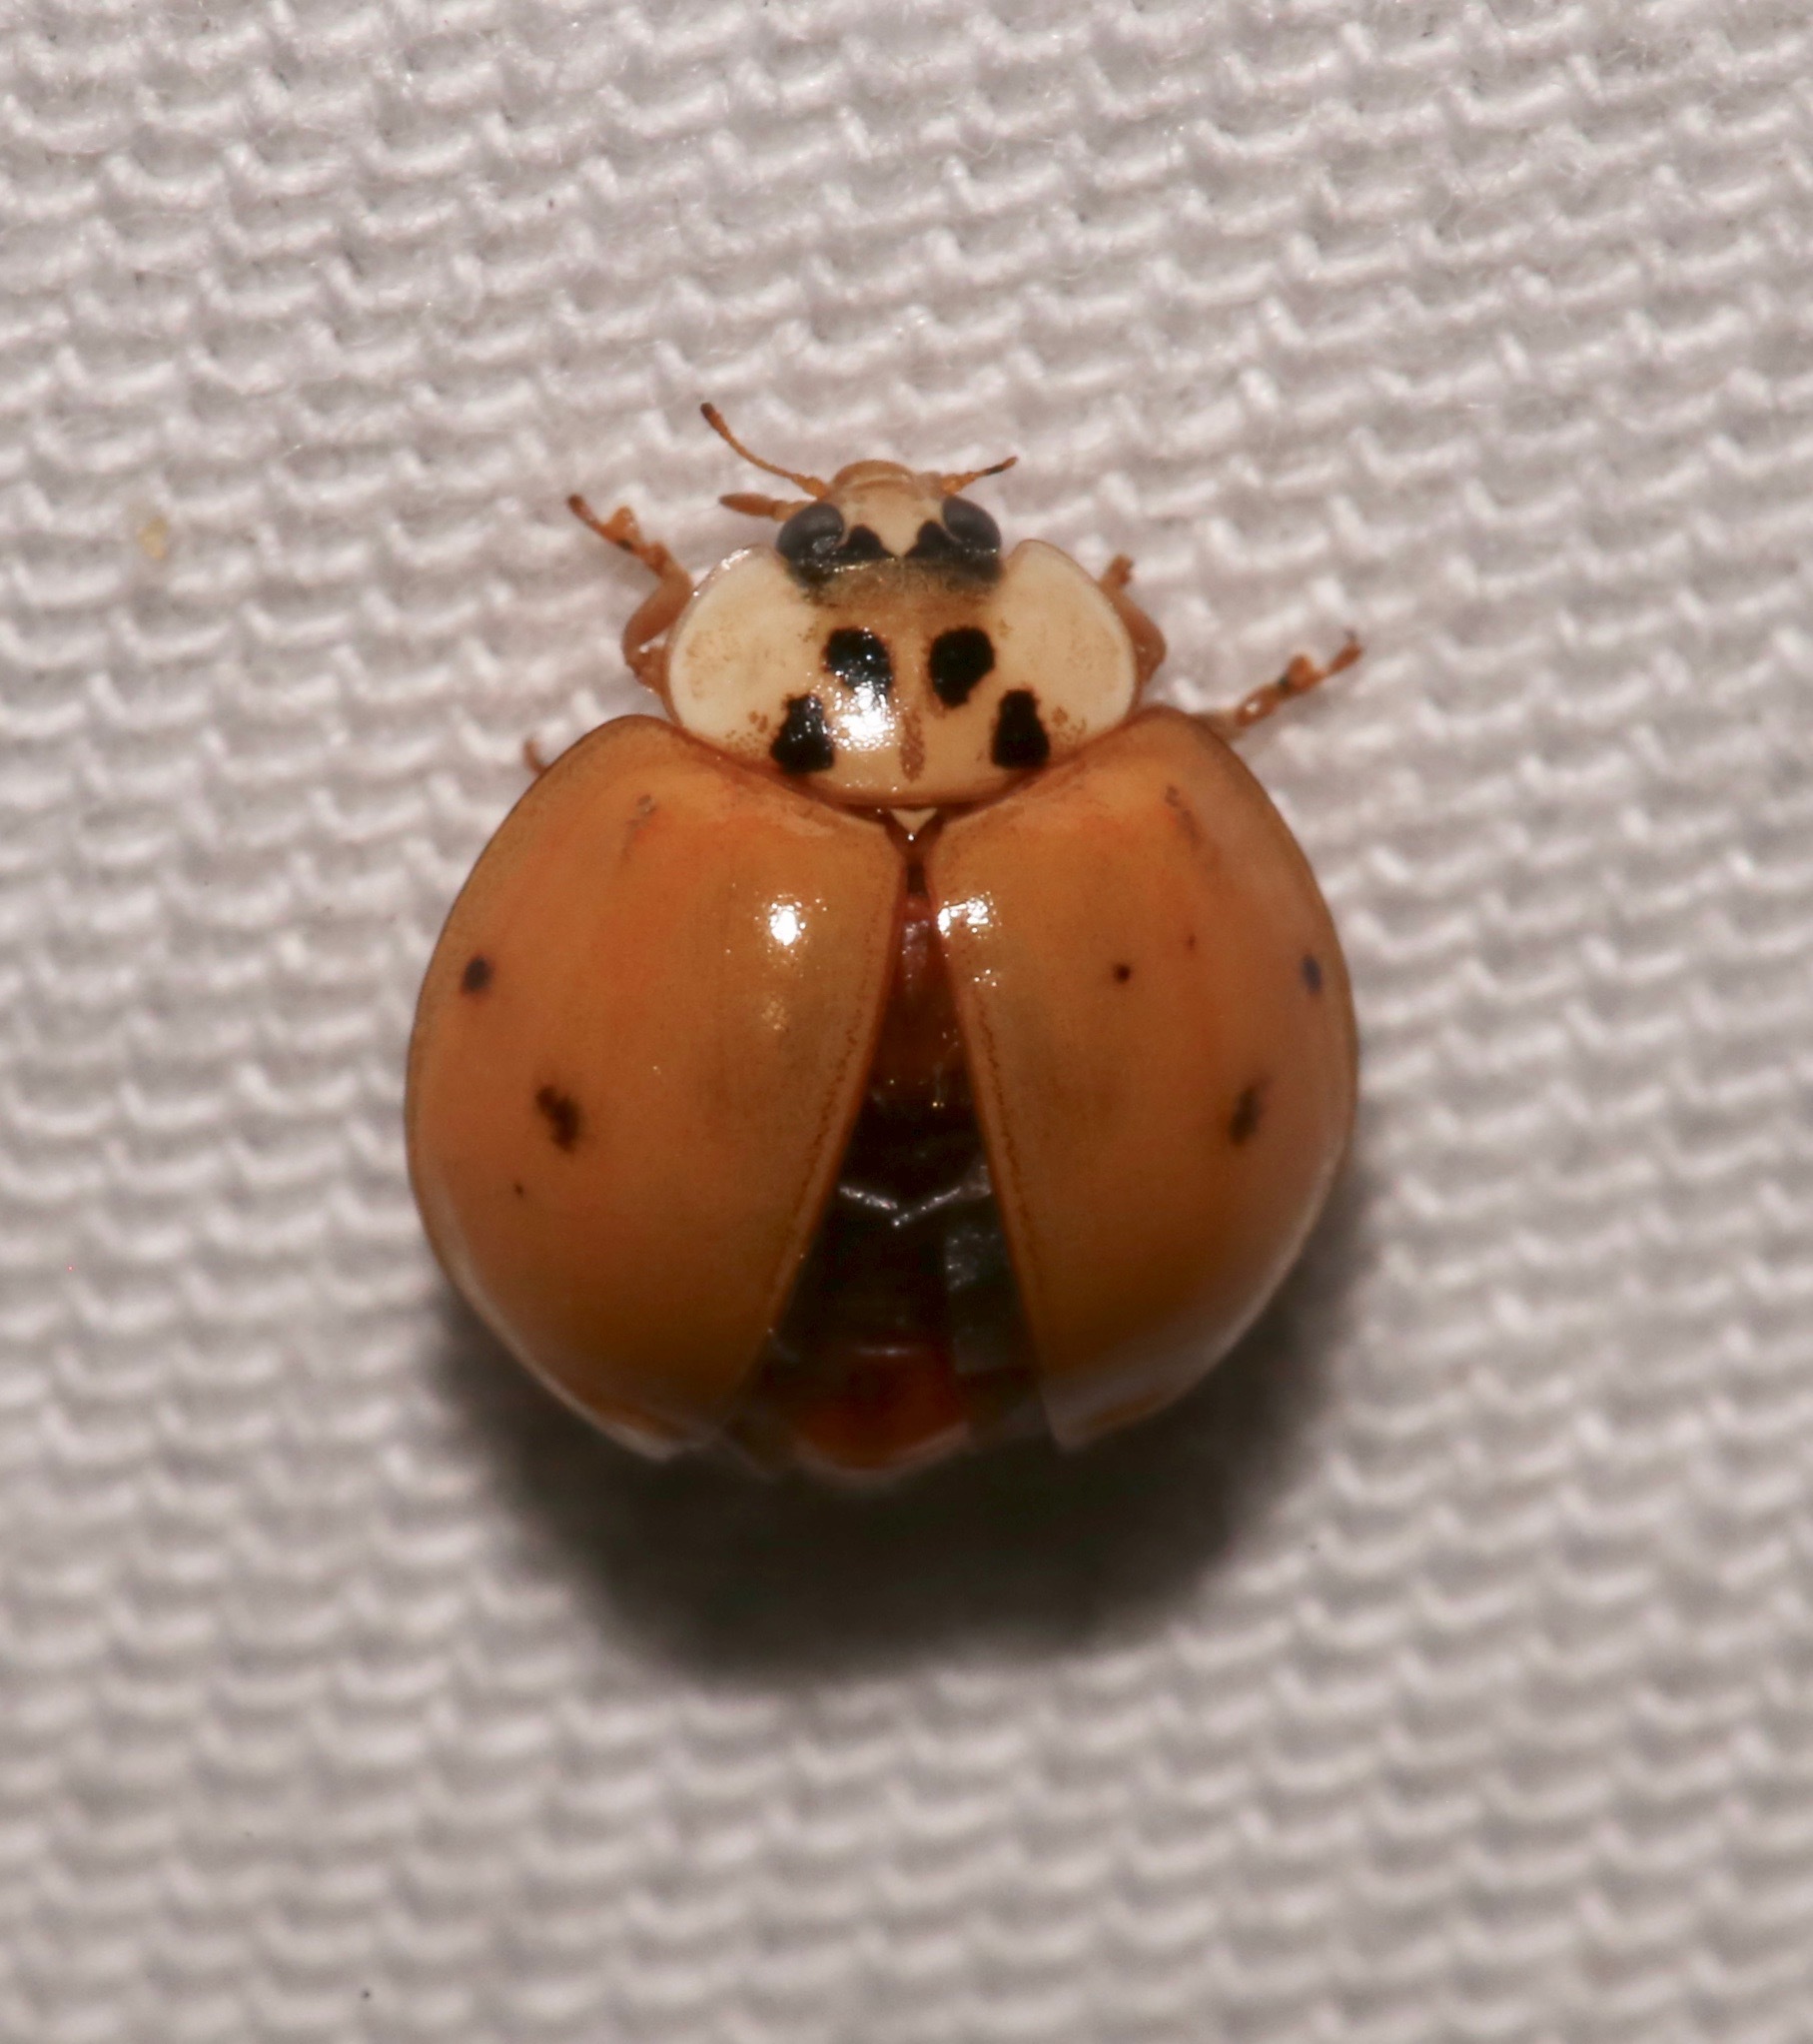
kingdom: Animalia
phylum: Arthropoda
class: Insecta
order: Coleoptera
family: Coccinellidae
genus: Harmonia
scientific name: Harmonia axyridis
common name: Harlequin ladybird
